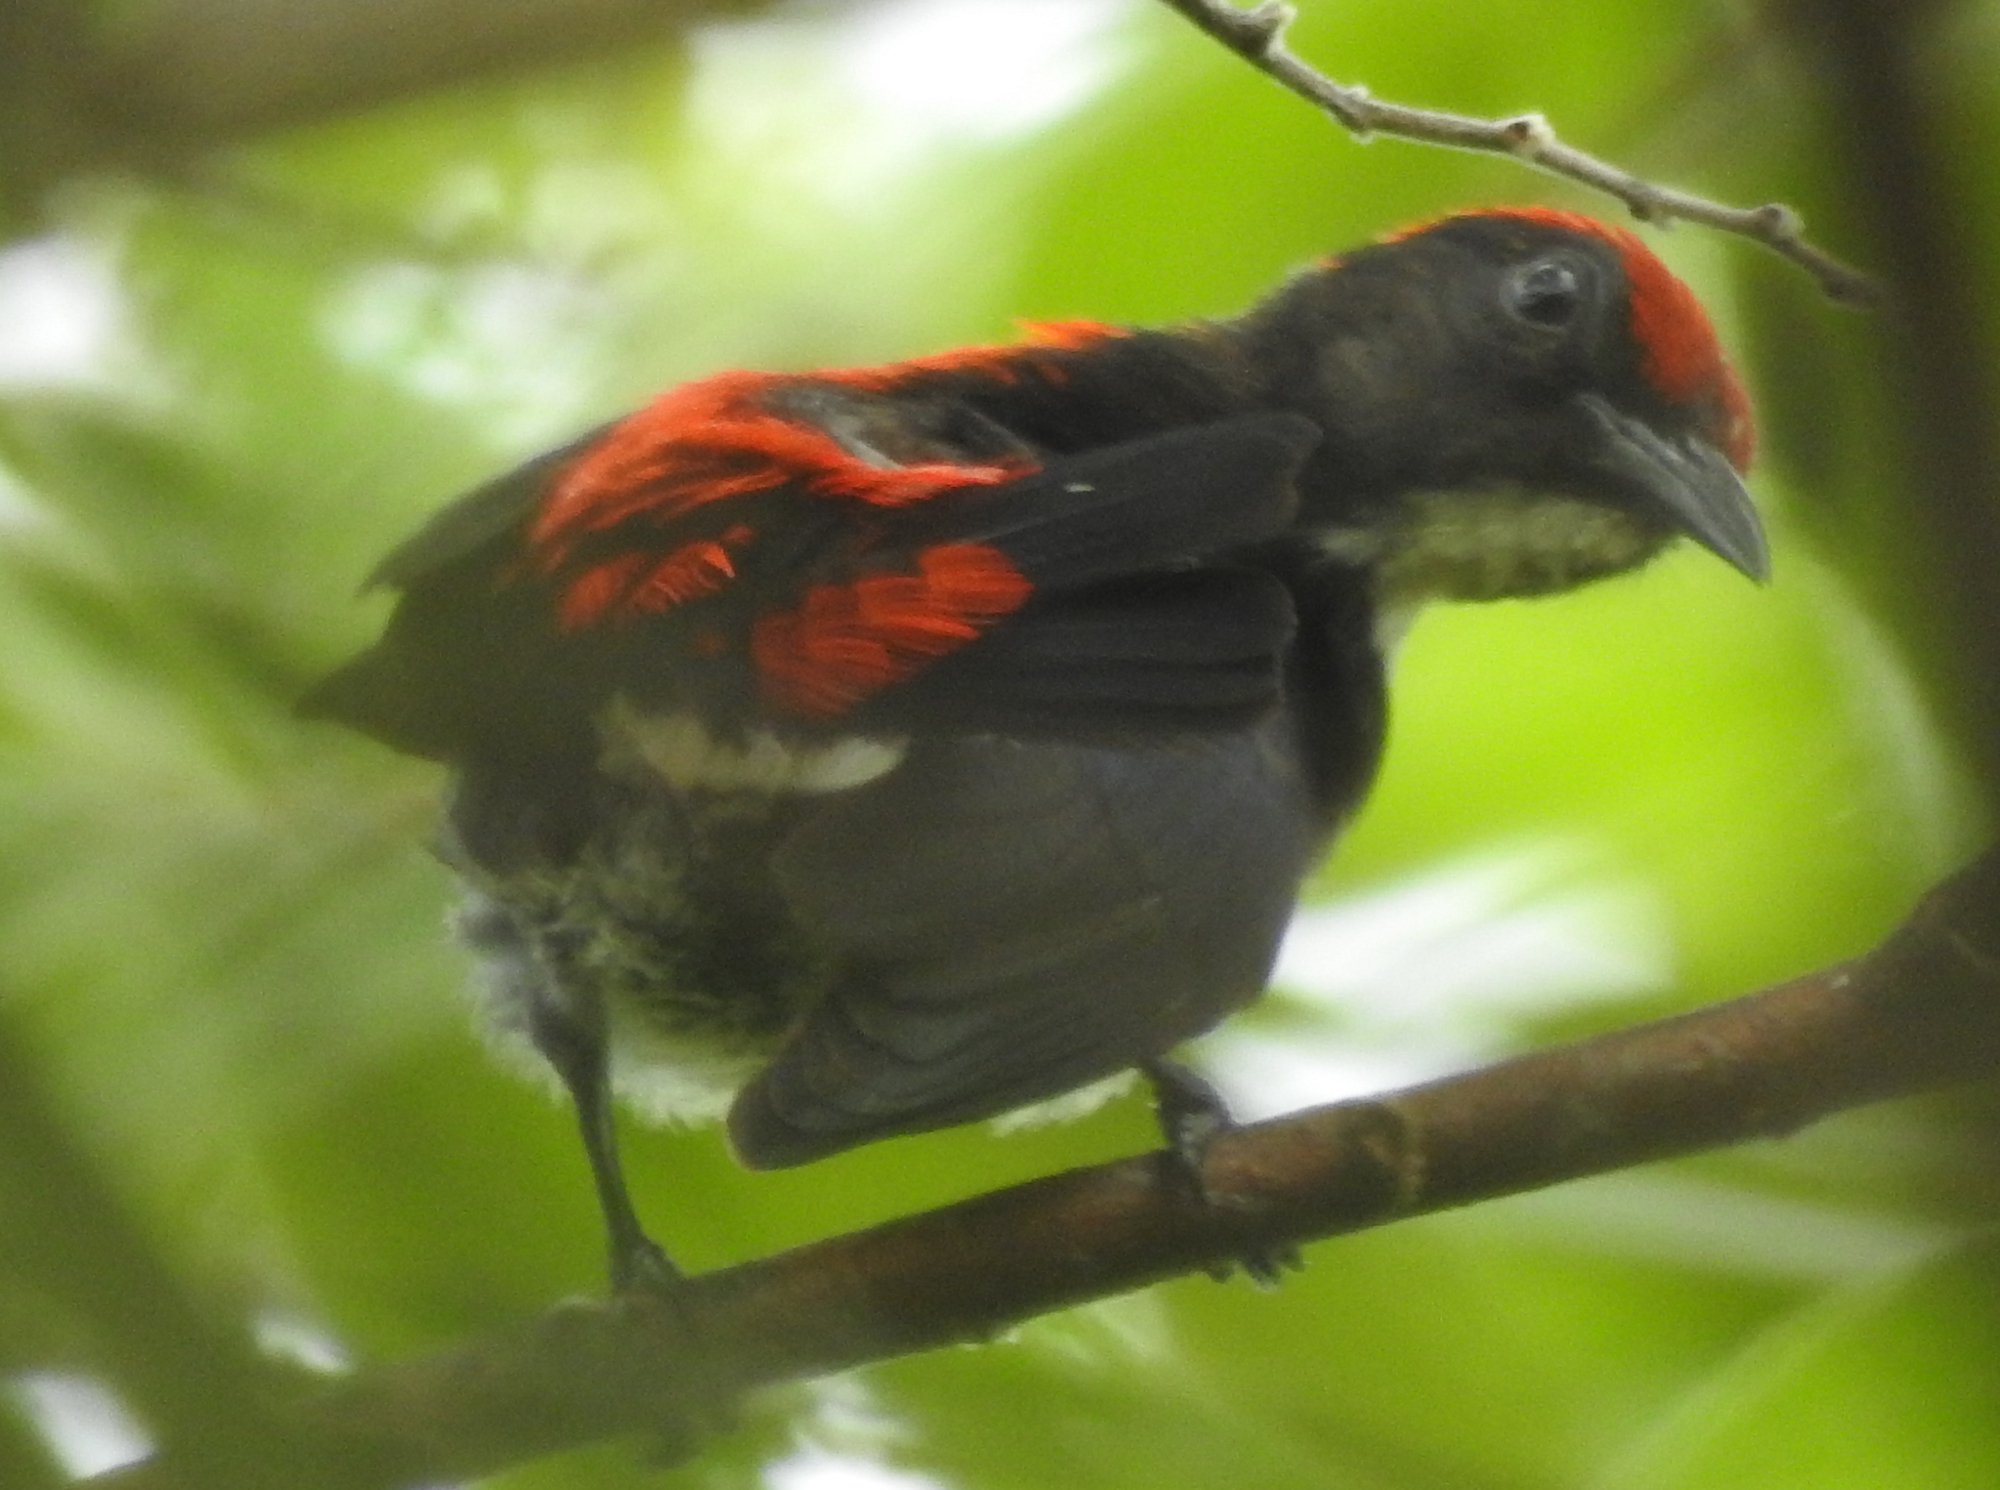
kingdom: Animalia
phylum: Chordata
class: Aves
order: Passeriformes
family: Dicaeidae
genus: Dicaeum
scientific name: Dicaeum cruentatum
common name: Scarlet-backed flowerpecker
